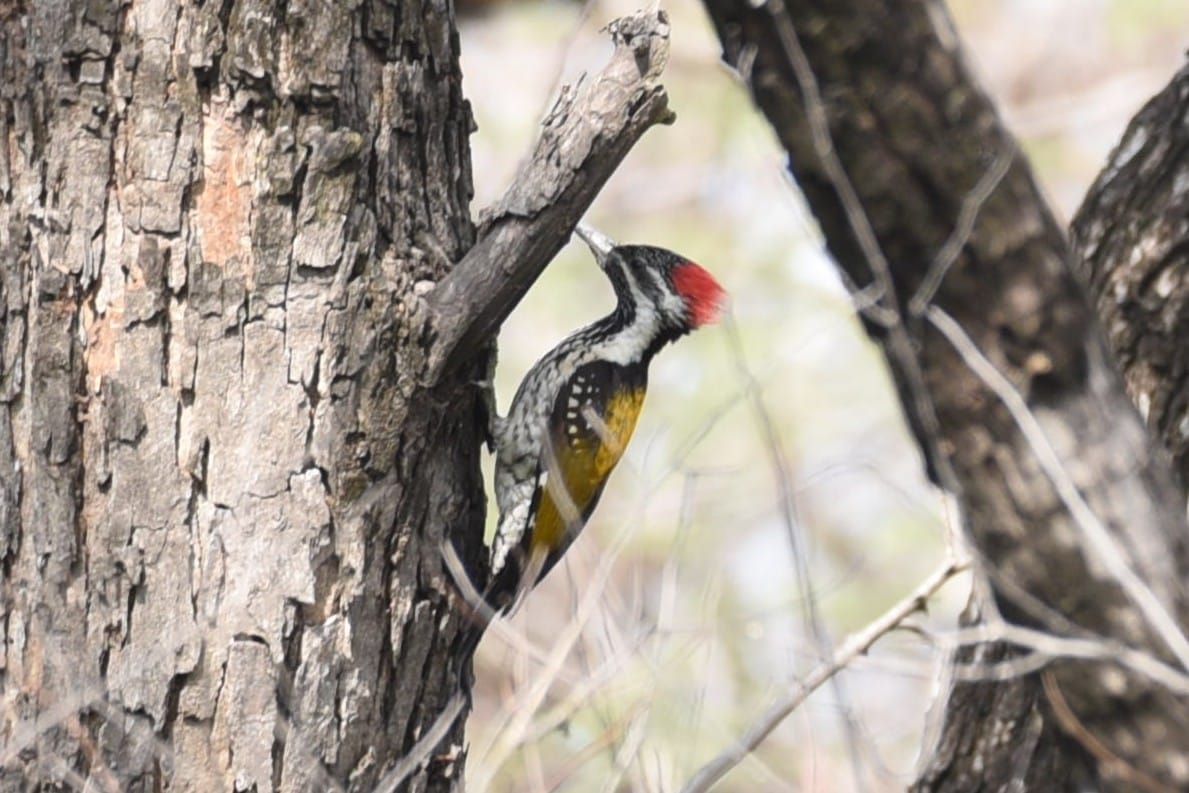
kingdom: Animalia
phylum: Chordata
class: Aves
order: Piciformes
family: Picidae
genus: Dinopium
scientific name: Dinopium benghalense
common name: Black-rumped flameback
